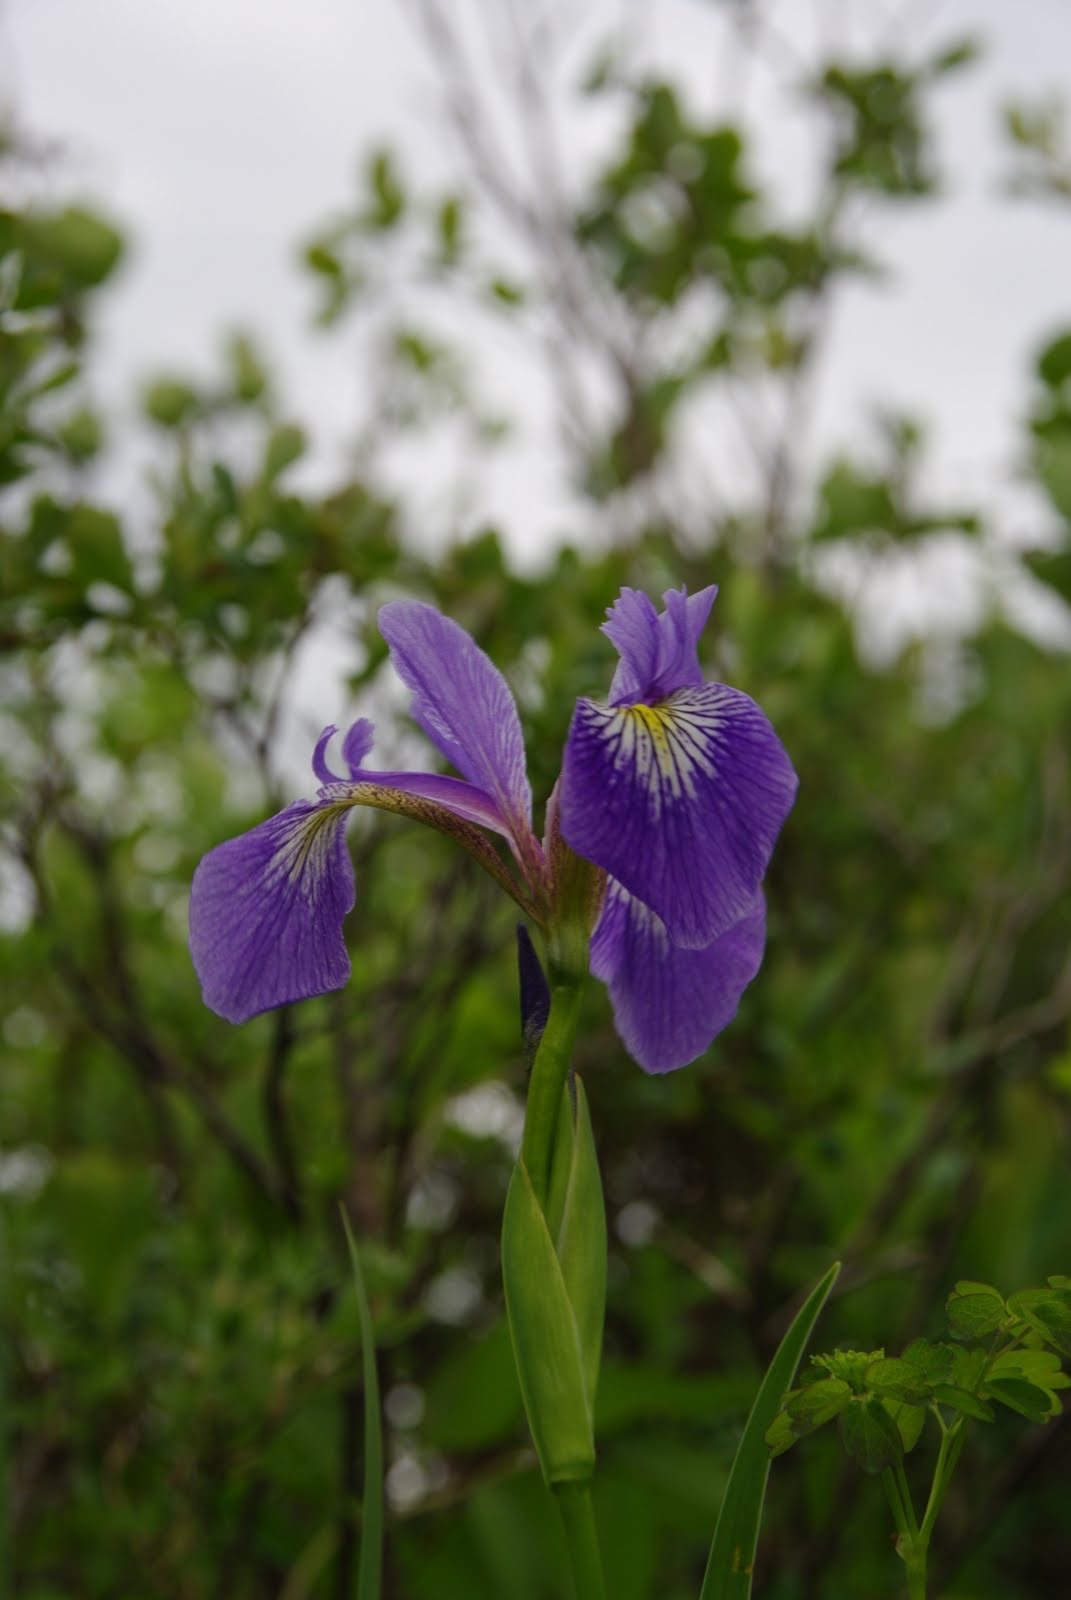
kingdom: Plantae
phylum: Tracheophyta
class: Liliopsida
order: Asparagales
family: Iridaceae
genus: Iris
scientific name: Iris versicolor
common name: Purple iris
